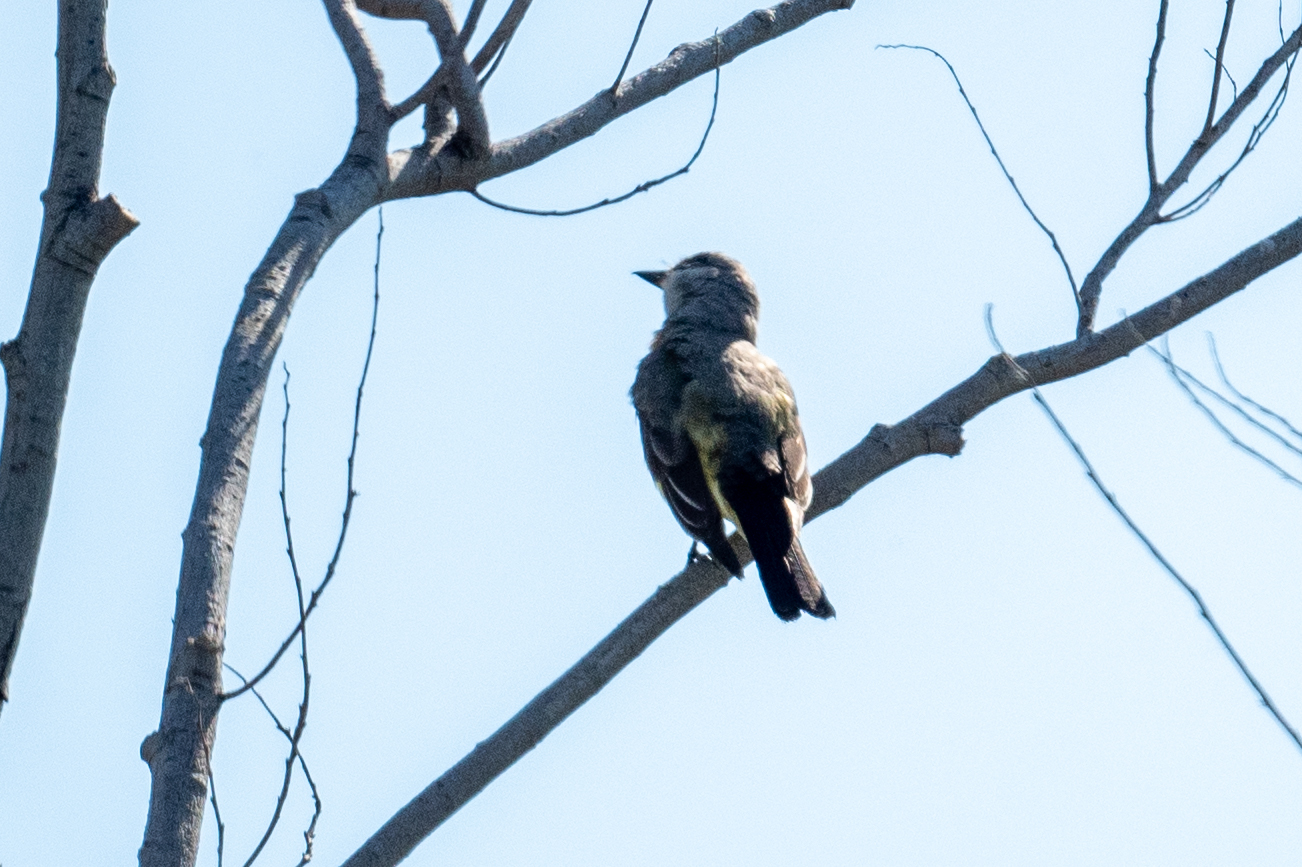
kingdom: Animalia
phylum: Chordata
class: Aves
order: Passeriformes
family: Tyrannidae
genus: Tyrannus
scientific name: Tyrannus verticalis
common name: Western kingbird
